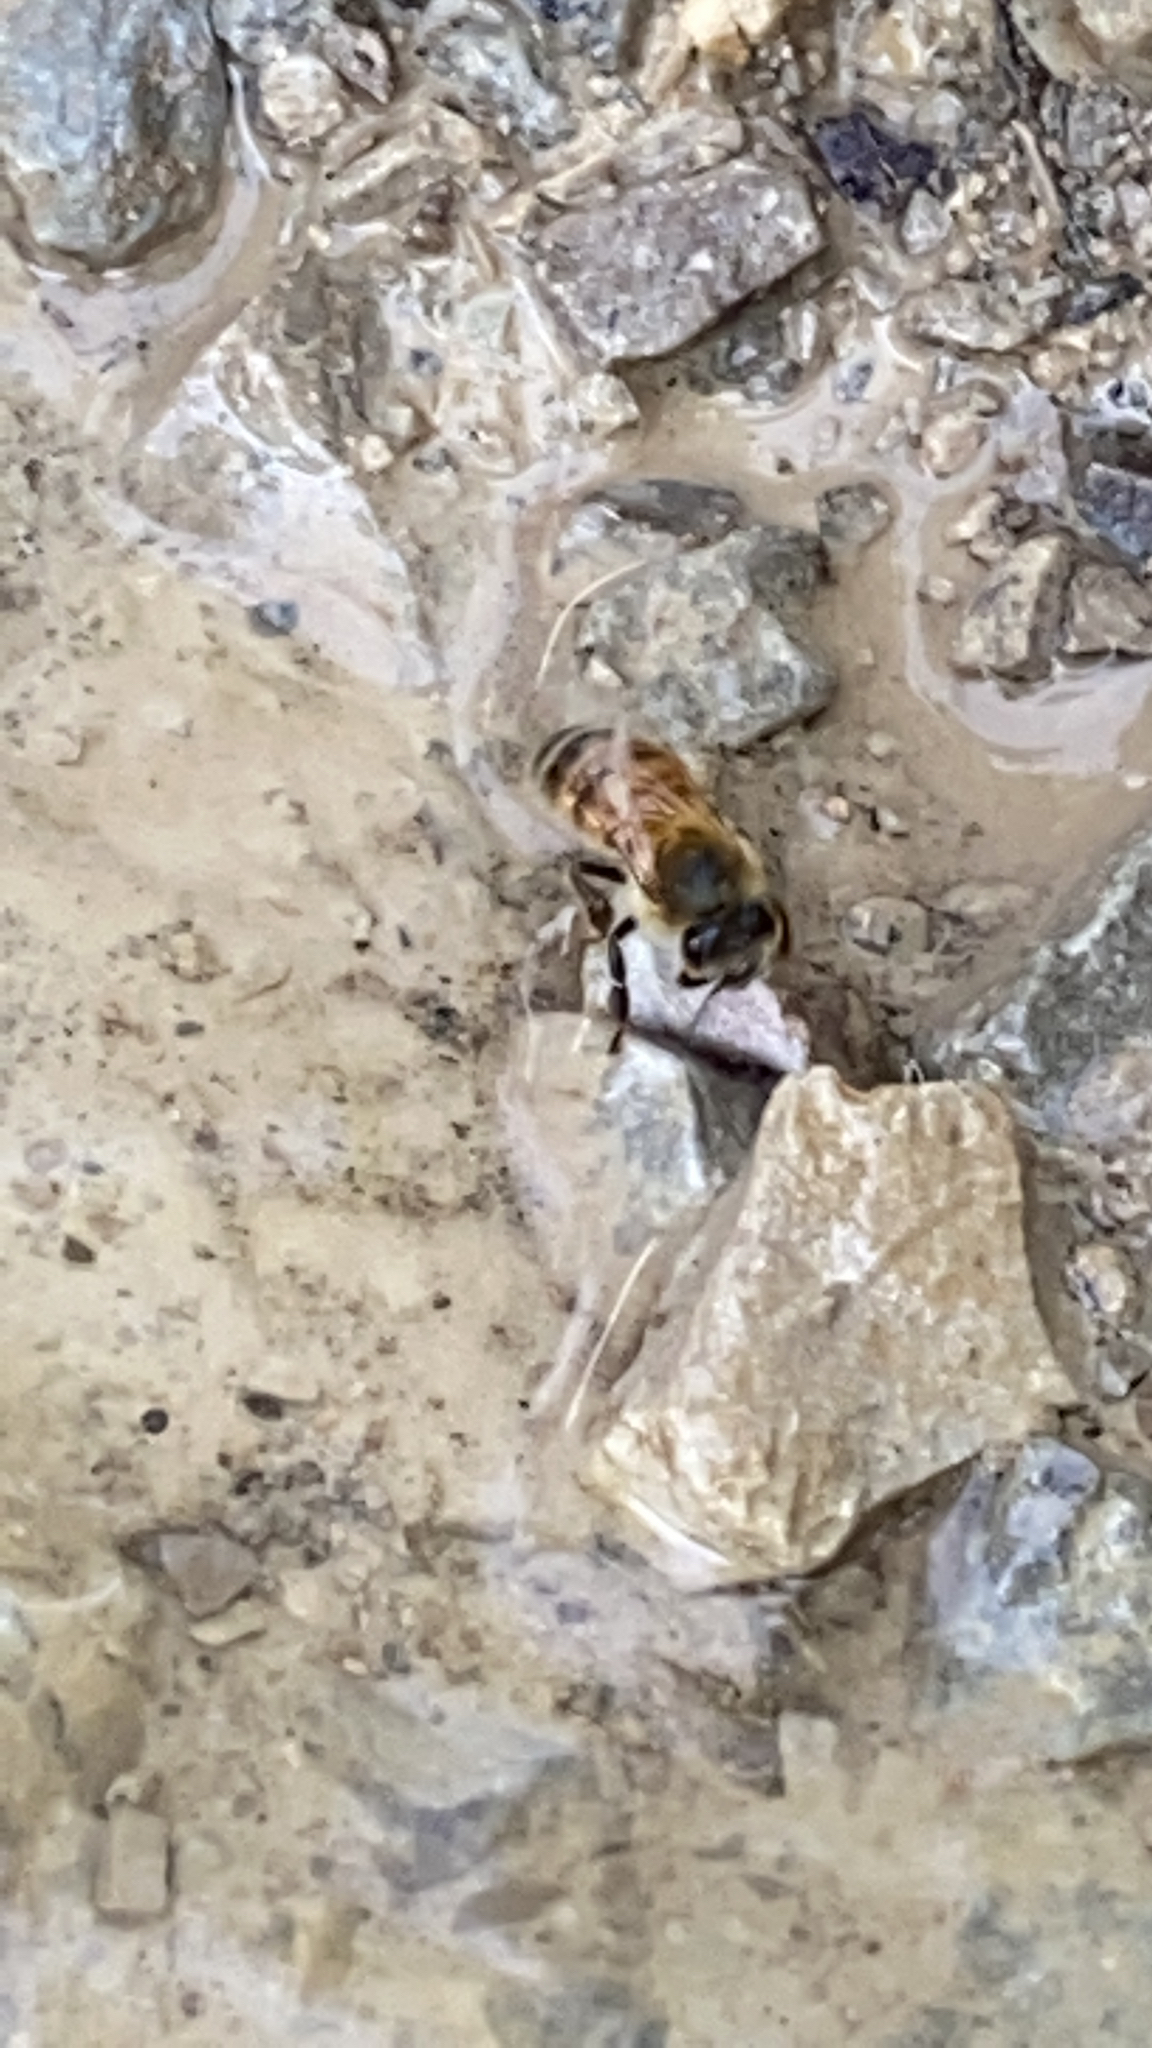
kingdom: Animalia
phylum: Arthropoda
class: Insecta
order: Hymenoptera
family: Apidae
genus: Apis
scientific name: Apis mellifera
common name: Honey bee
